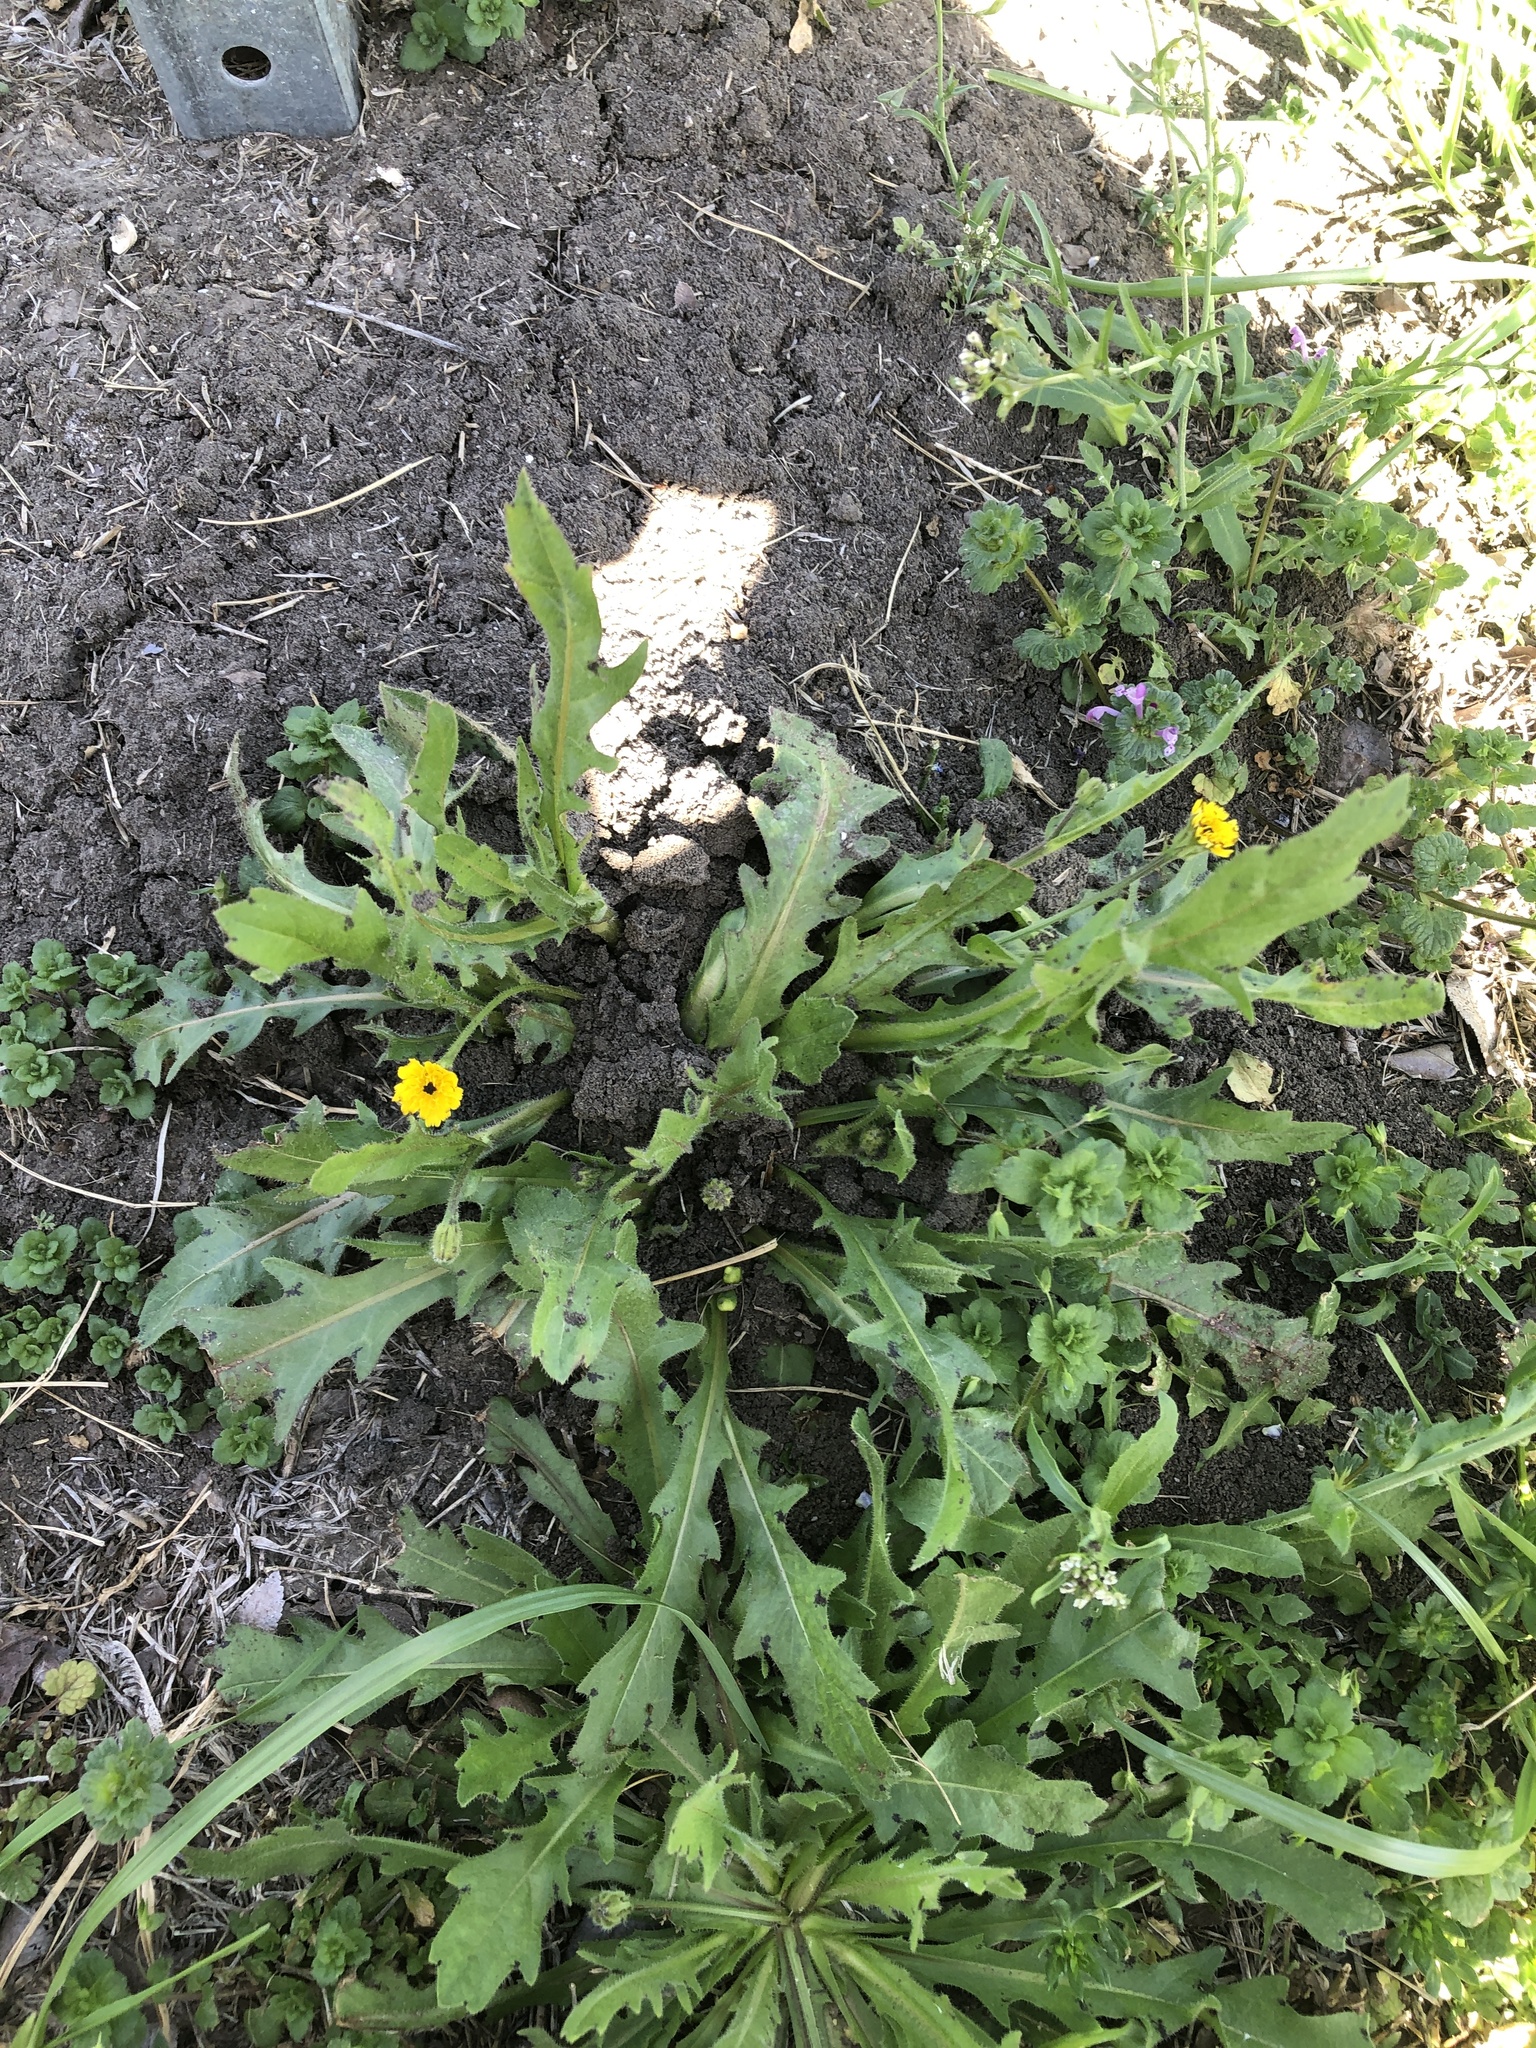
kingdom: Plantae
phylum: Tracheophyta
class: Magnoliopsida
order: Asterales
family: Asteraceae
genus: Hedypnois
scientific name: Hedypnois rhagadioloides
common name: Cretan weed
